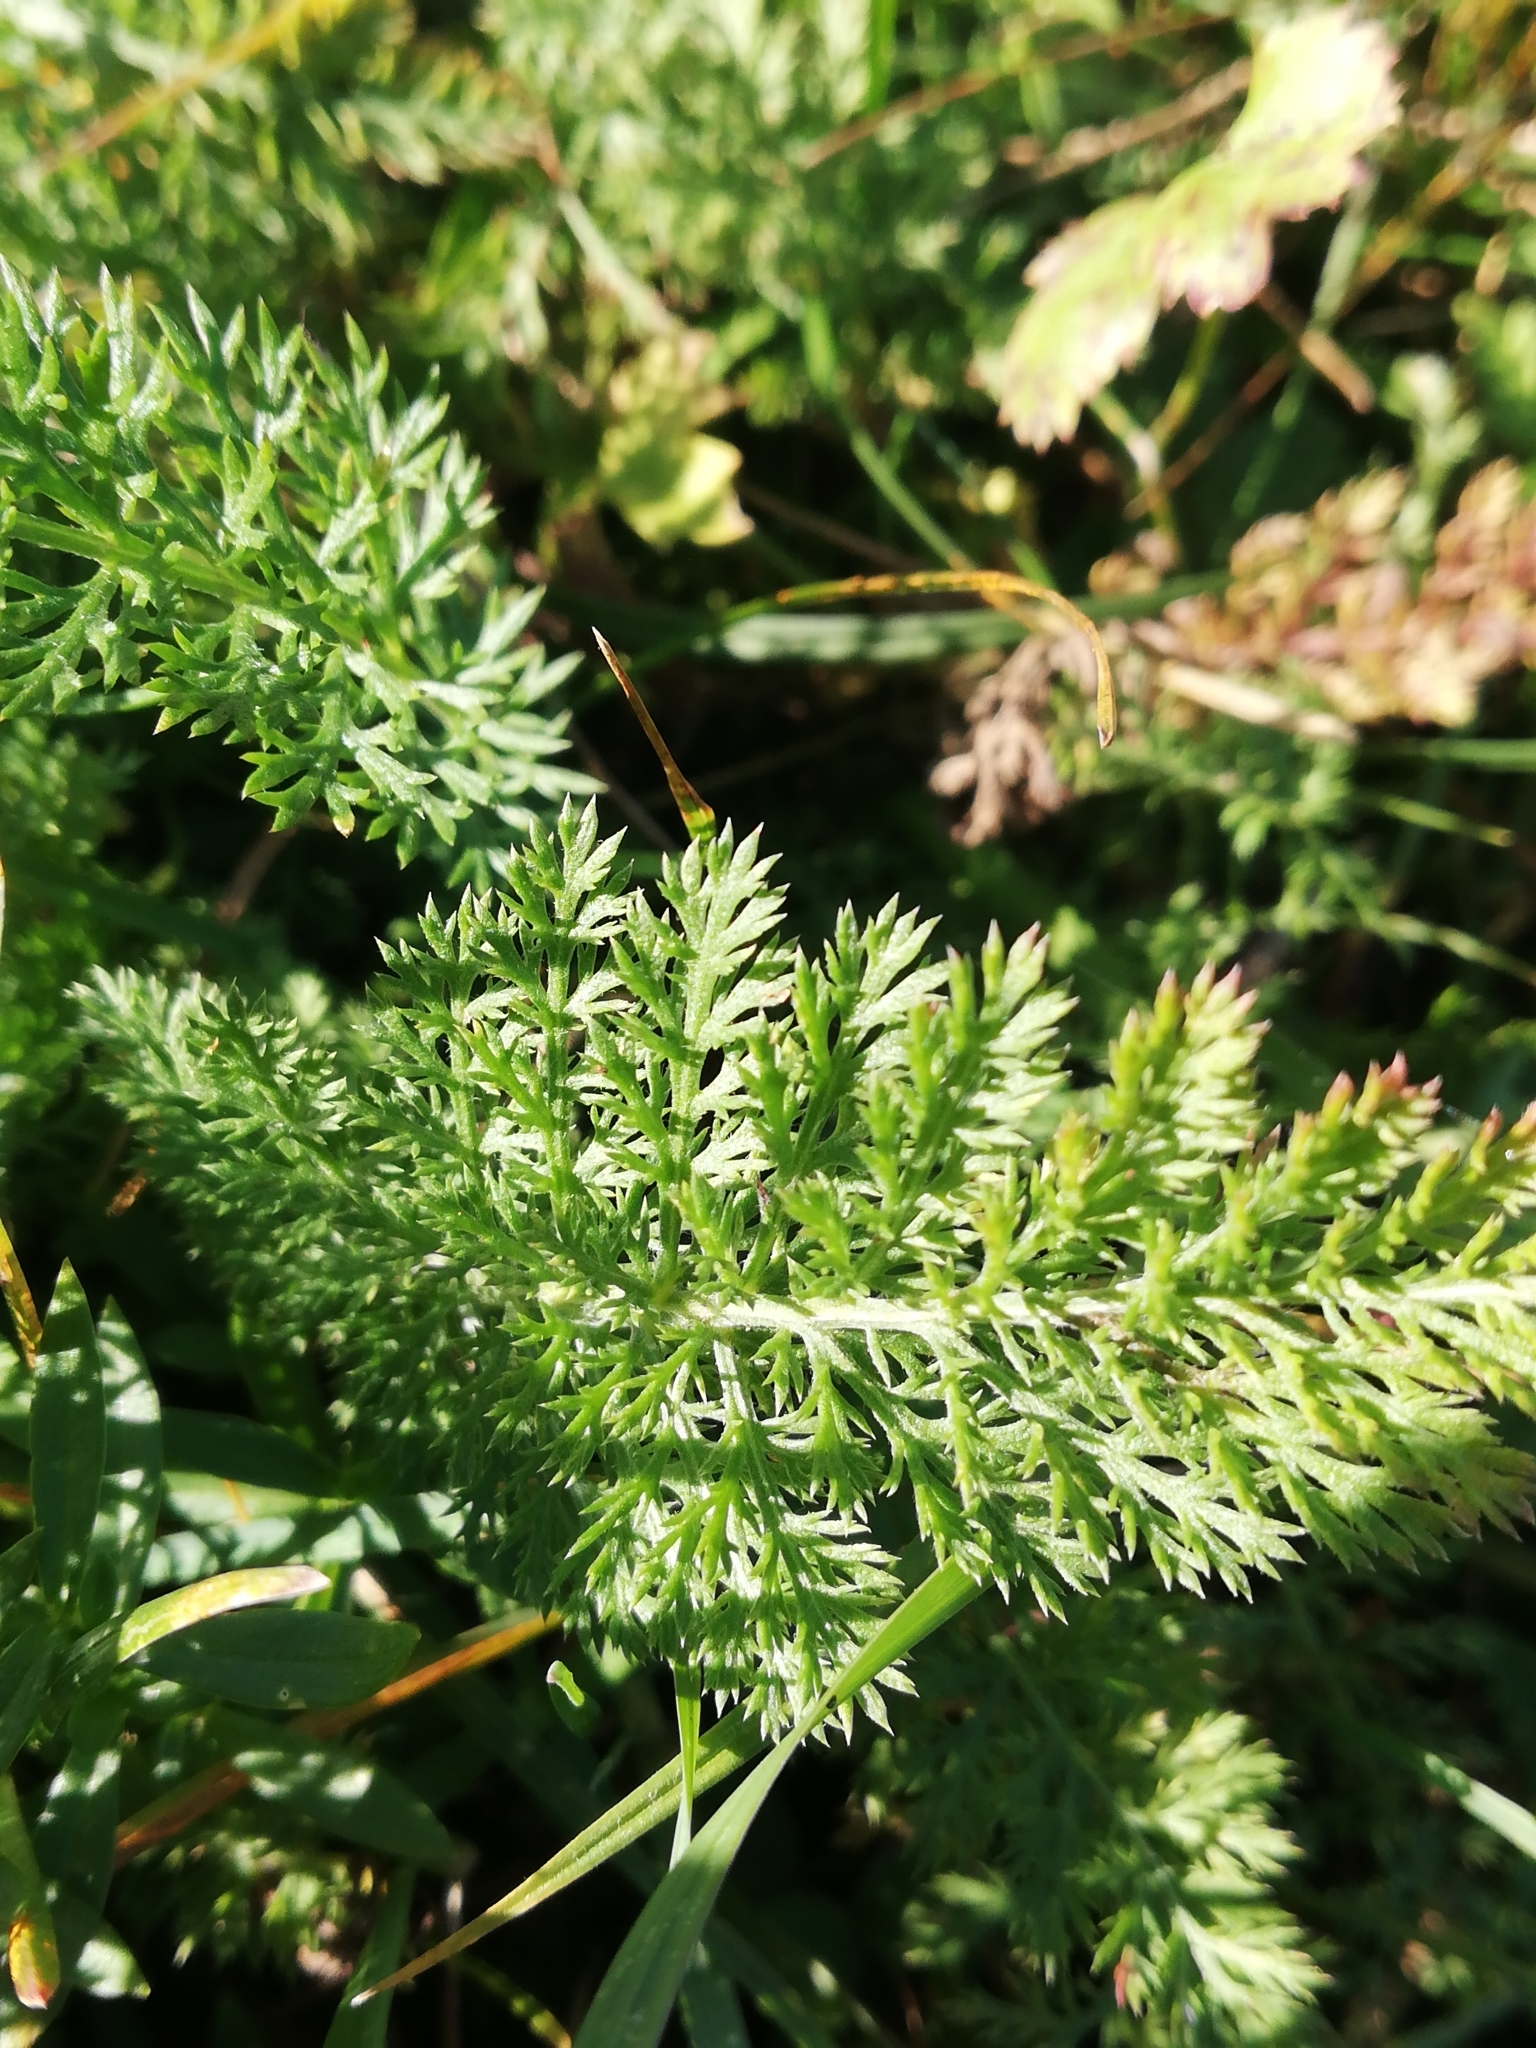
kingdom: Plantae
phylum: Tracheophyta
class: Magnoliopsida
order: Asterales
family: Asteraceae
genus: Achillea
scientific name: Achillea millefolium
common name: Yarrow
